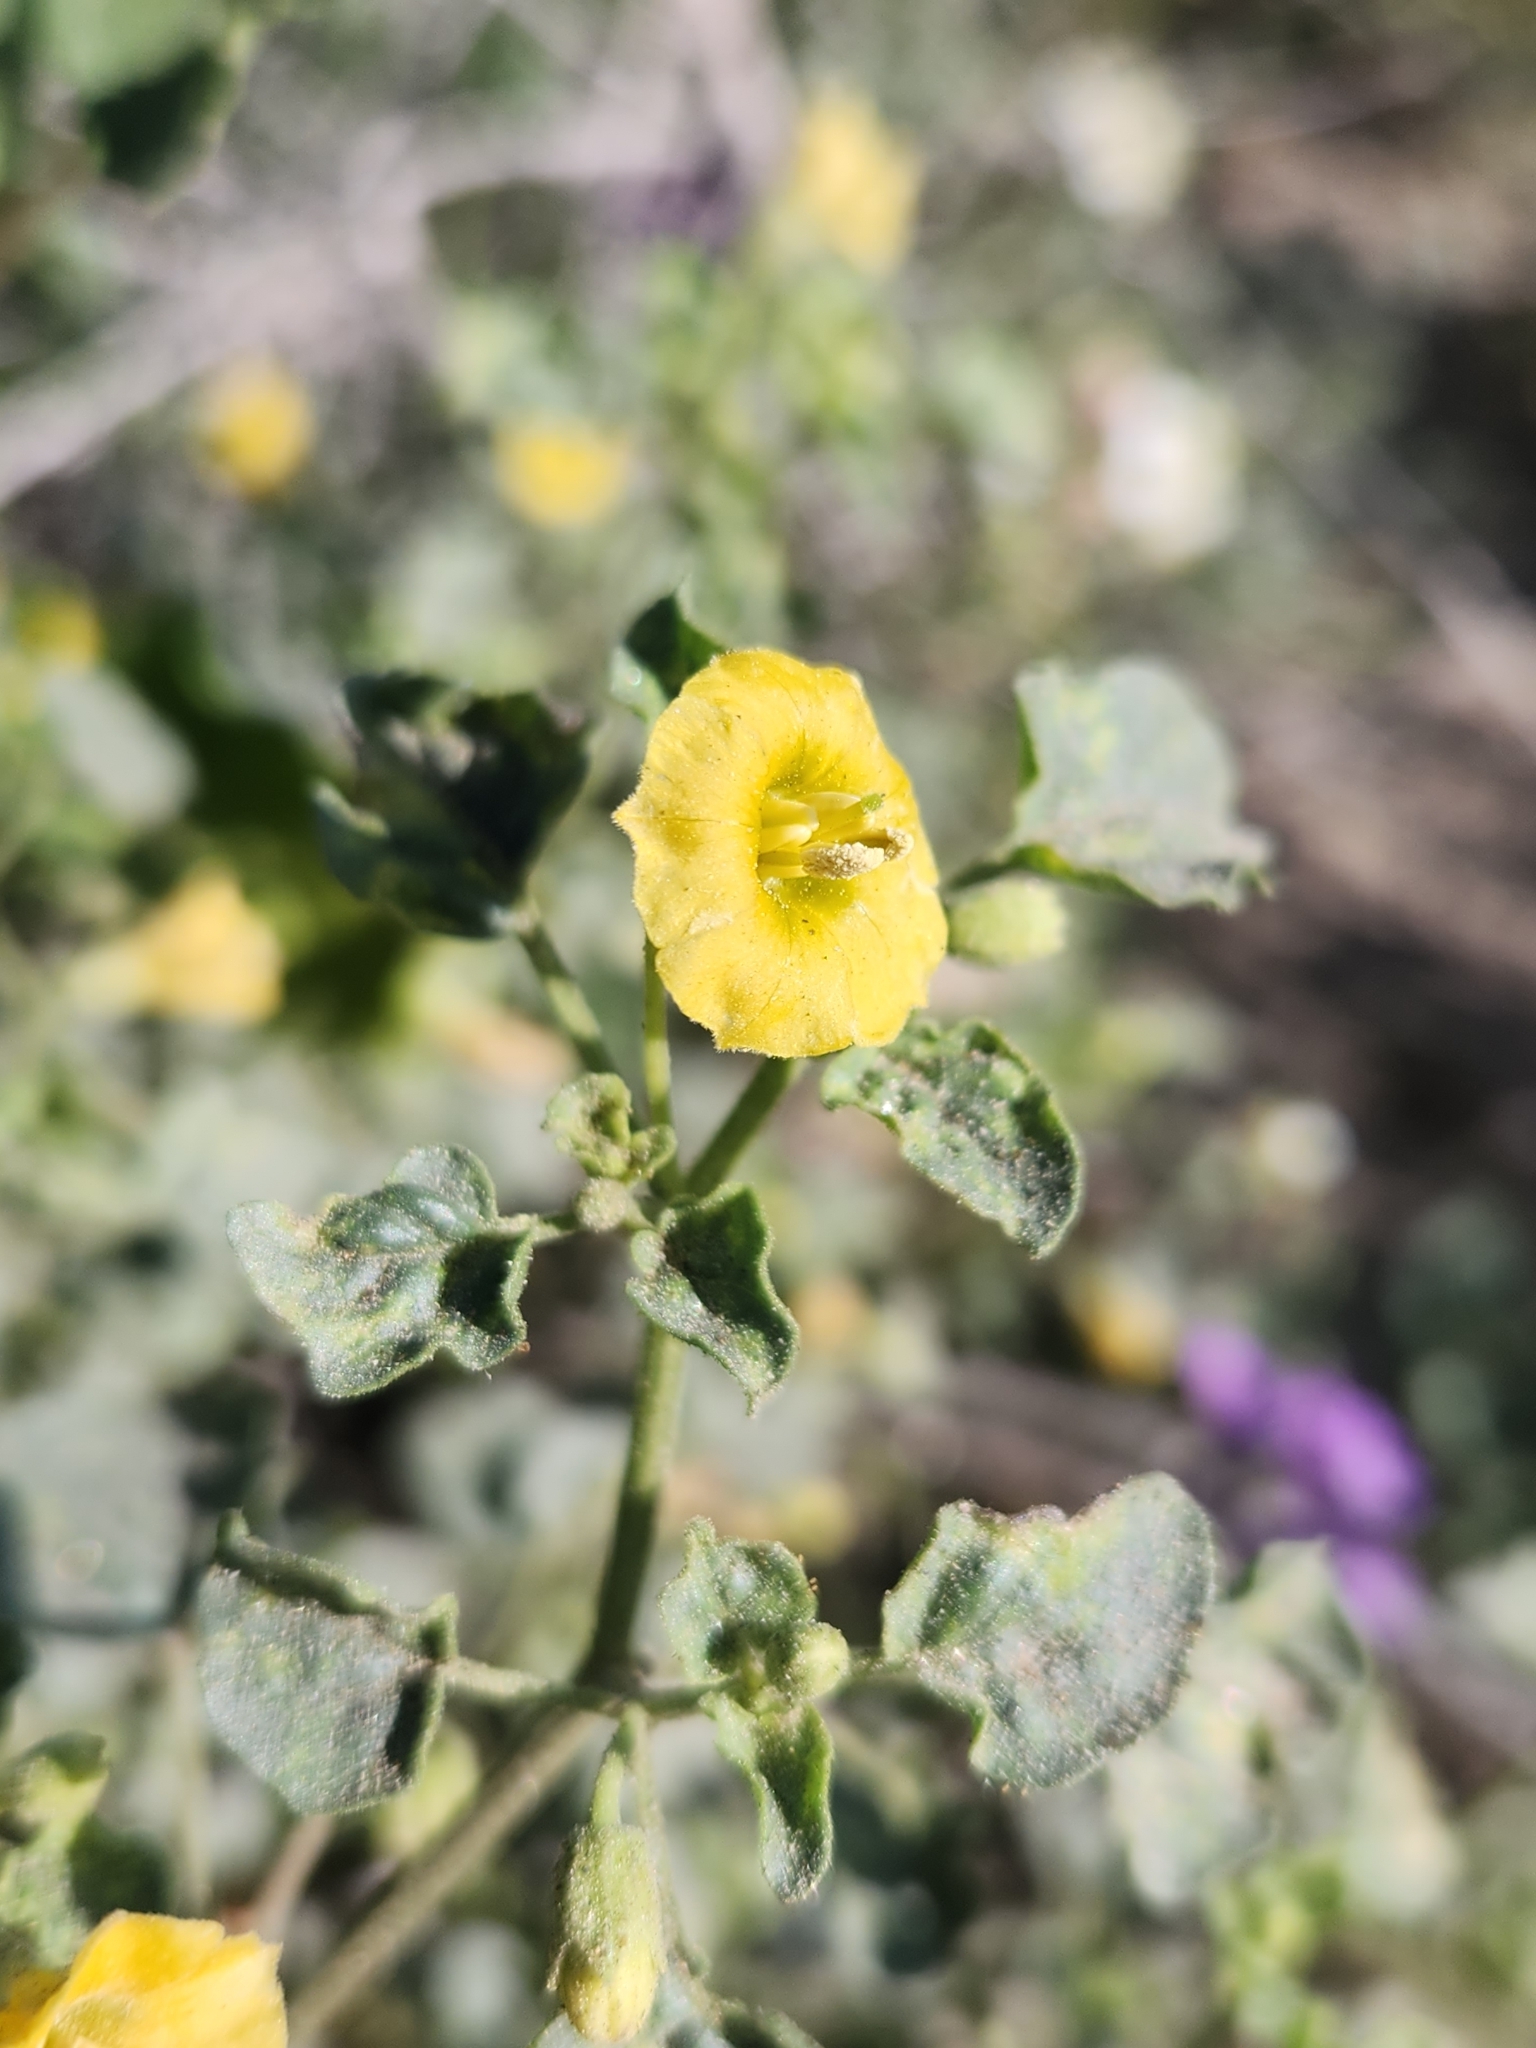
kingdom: Plantae
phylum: Tracheophyta
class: Magnoliopsida
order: Solanales
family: Solanaceae
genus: Physalis
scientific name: Physalis crassifolia
